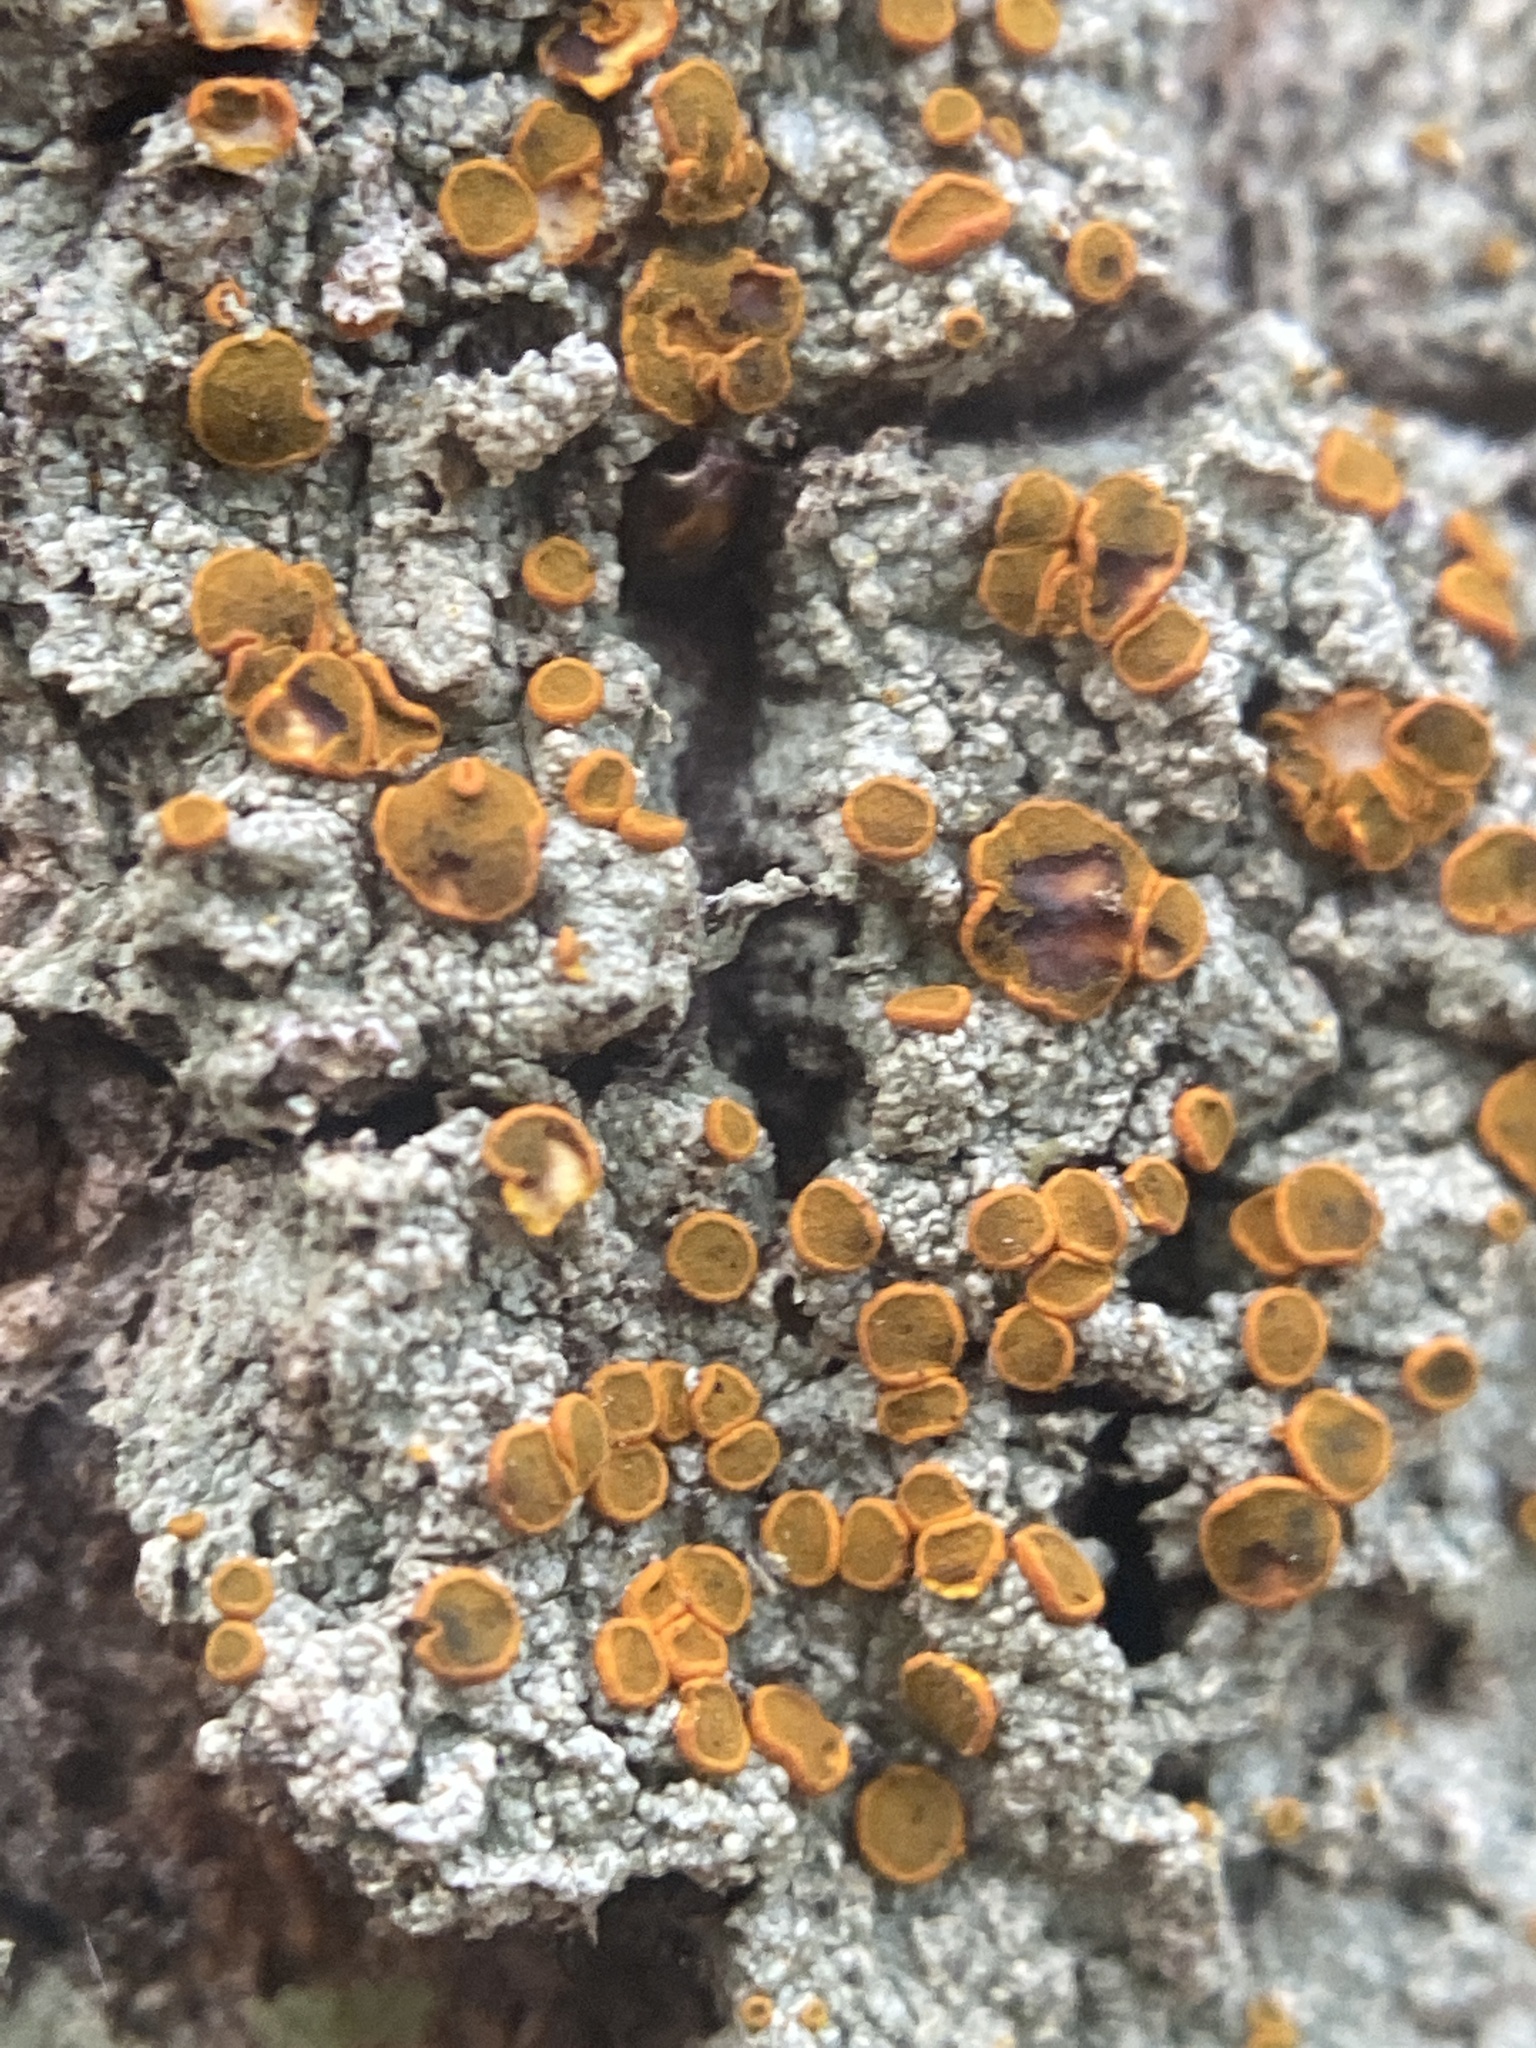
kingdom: Fungi
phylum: Ascomycota
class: Lecanoromycetes
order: Teloschistales
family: Brigantiaeaceae
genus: Brigantiaea
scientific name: Brigantiaea leucoxantha
